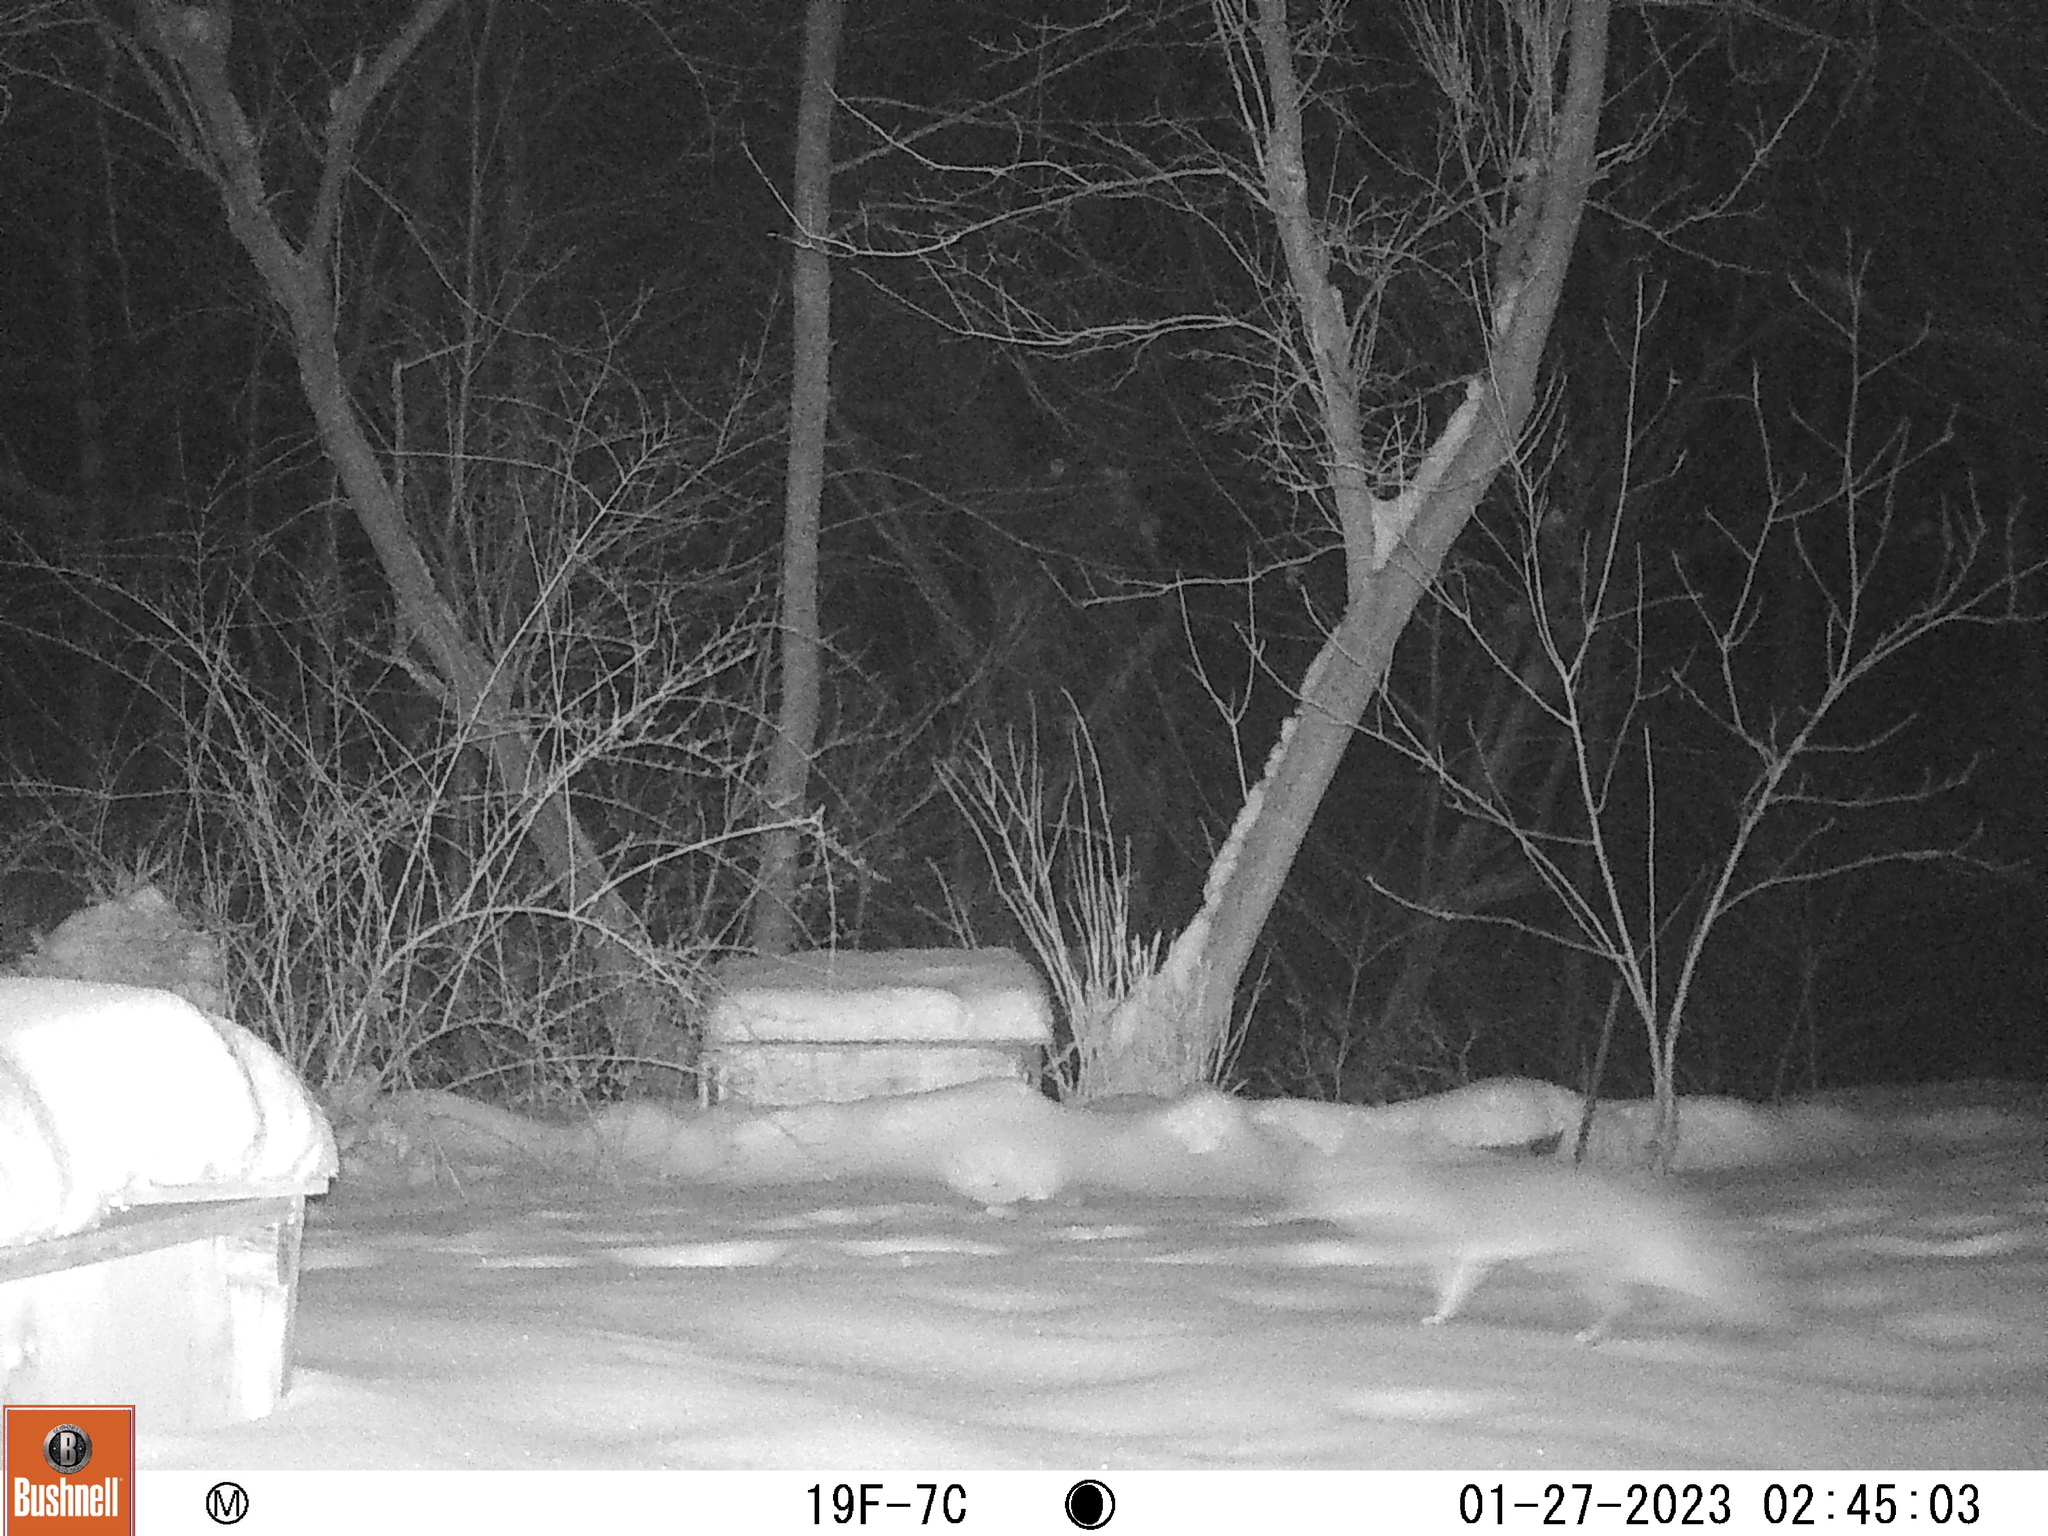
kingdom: Animalia
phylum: Chordata
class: Mammalia
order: Carnivora
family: Canidae
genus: Urocyon
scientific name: Urocyon cinereoargenteus
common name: Gray fox
